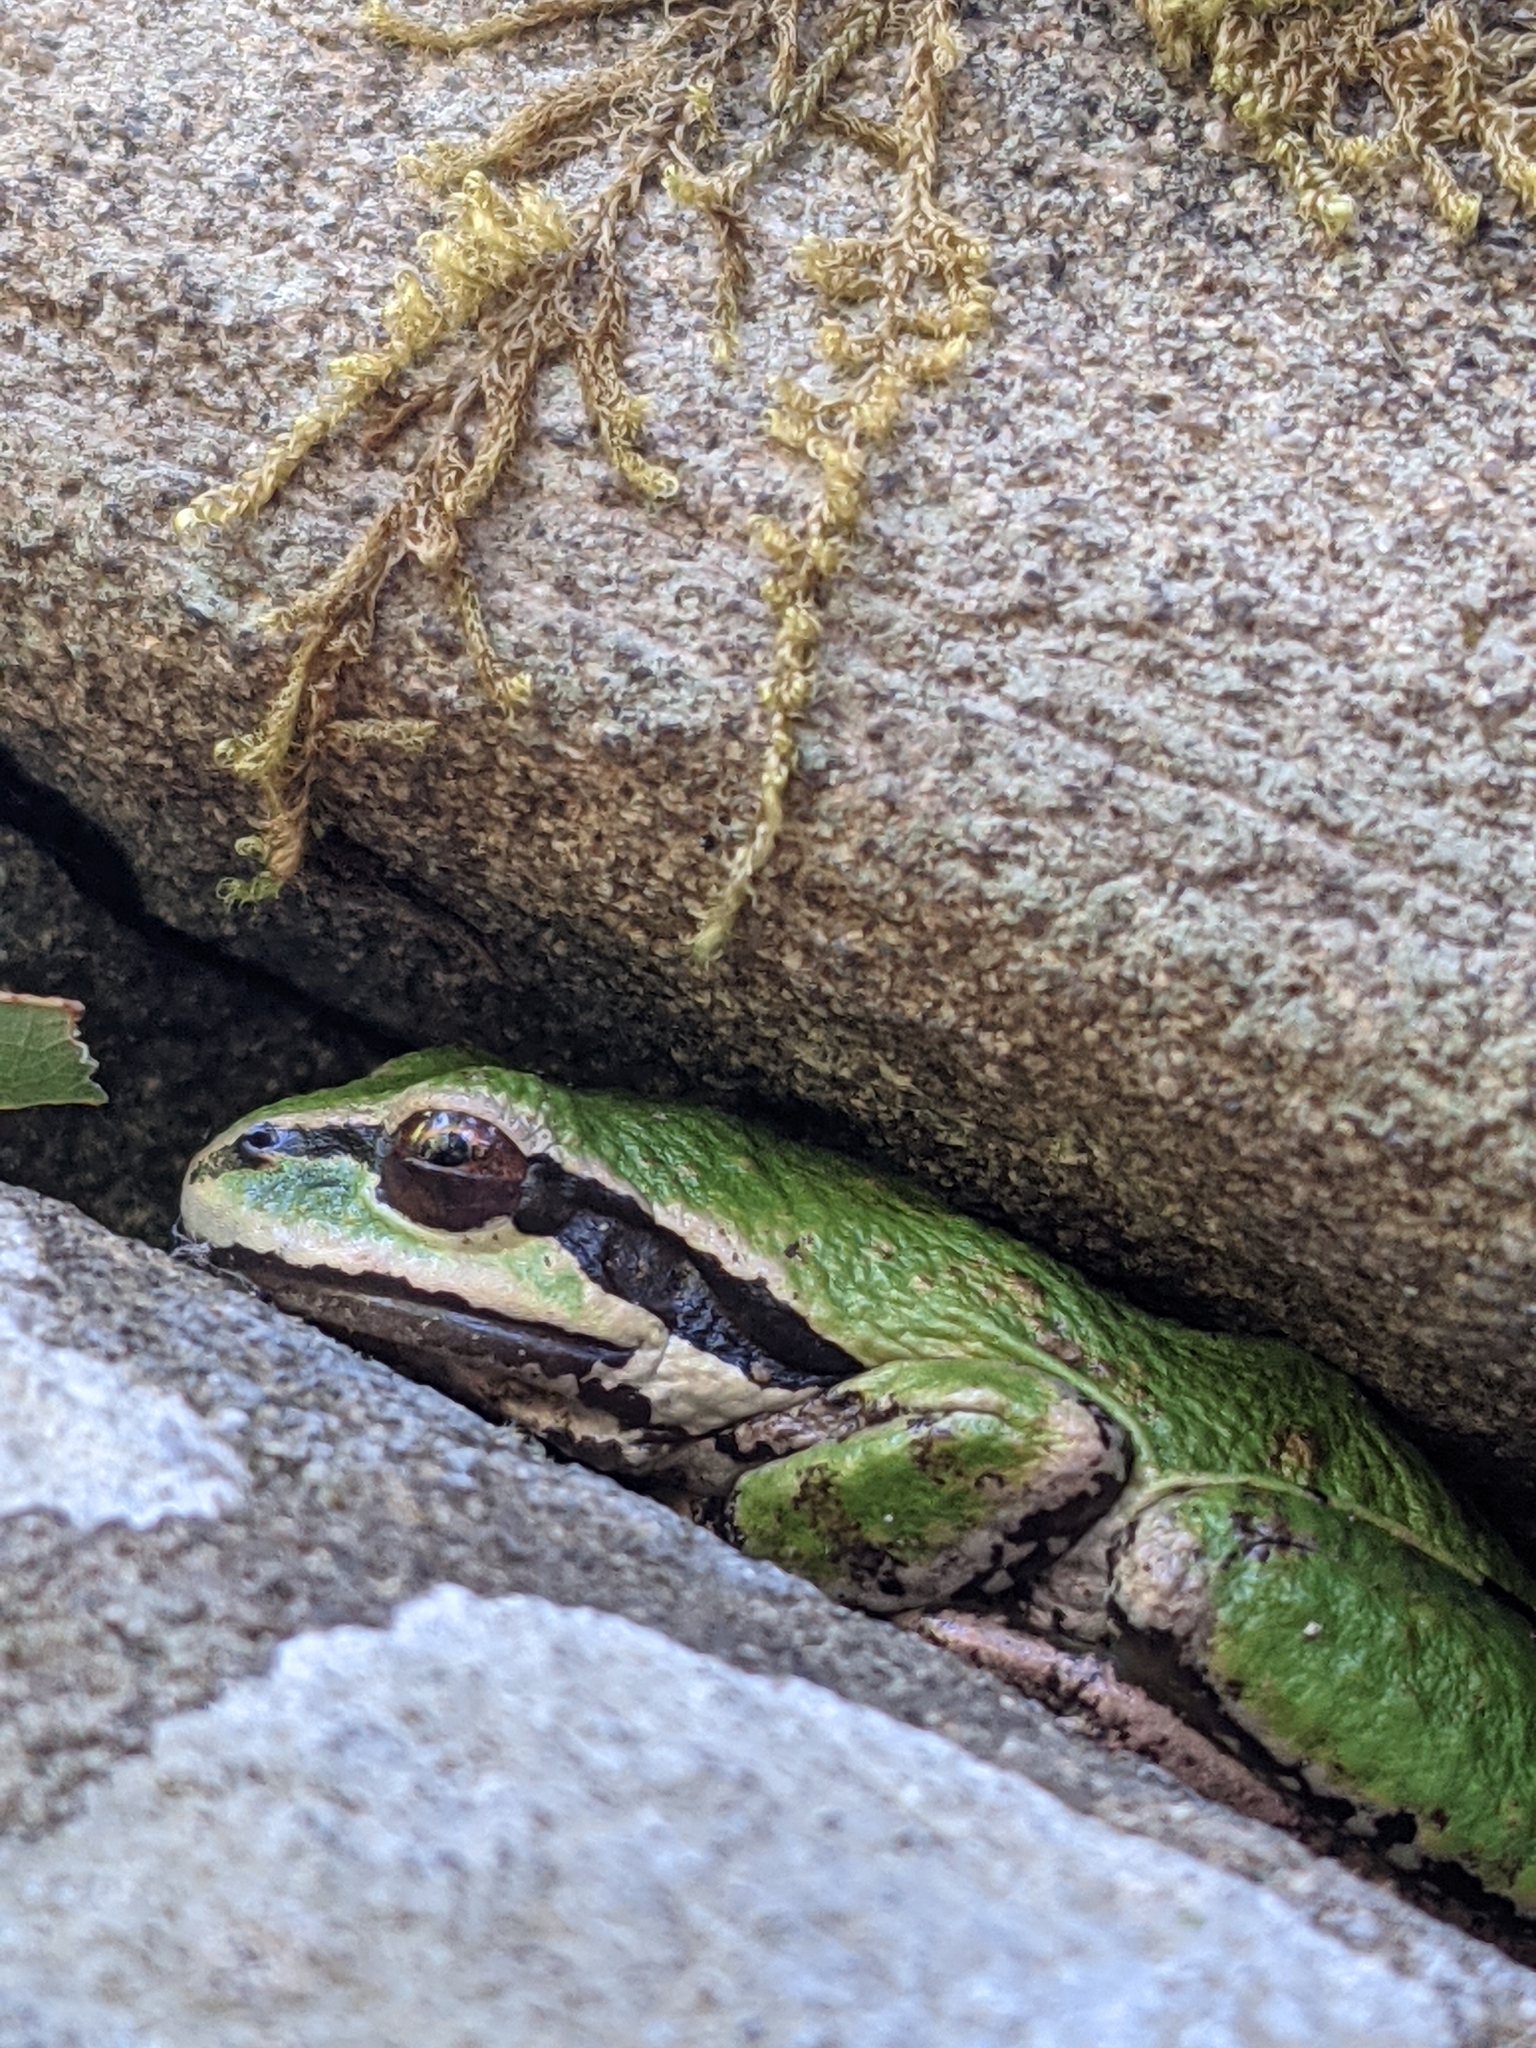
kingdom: Animalia
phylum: Chordata
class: Amphibia
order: Anura
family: Hylidae
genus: Pseudacris
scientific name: Pseudacris regilla
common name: Pacific chorus frog
